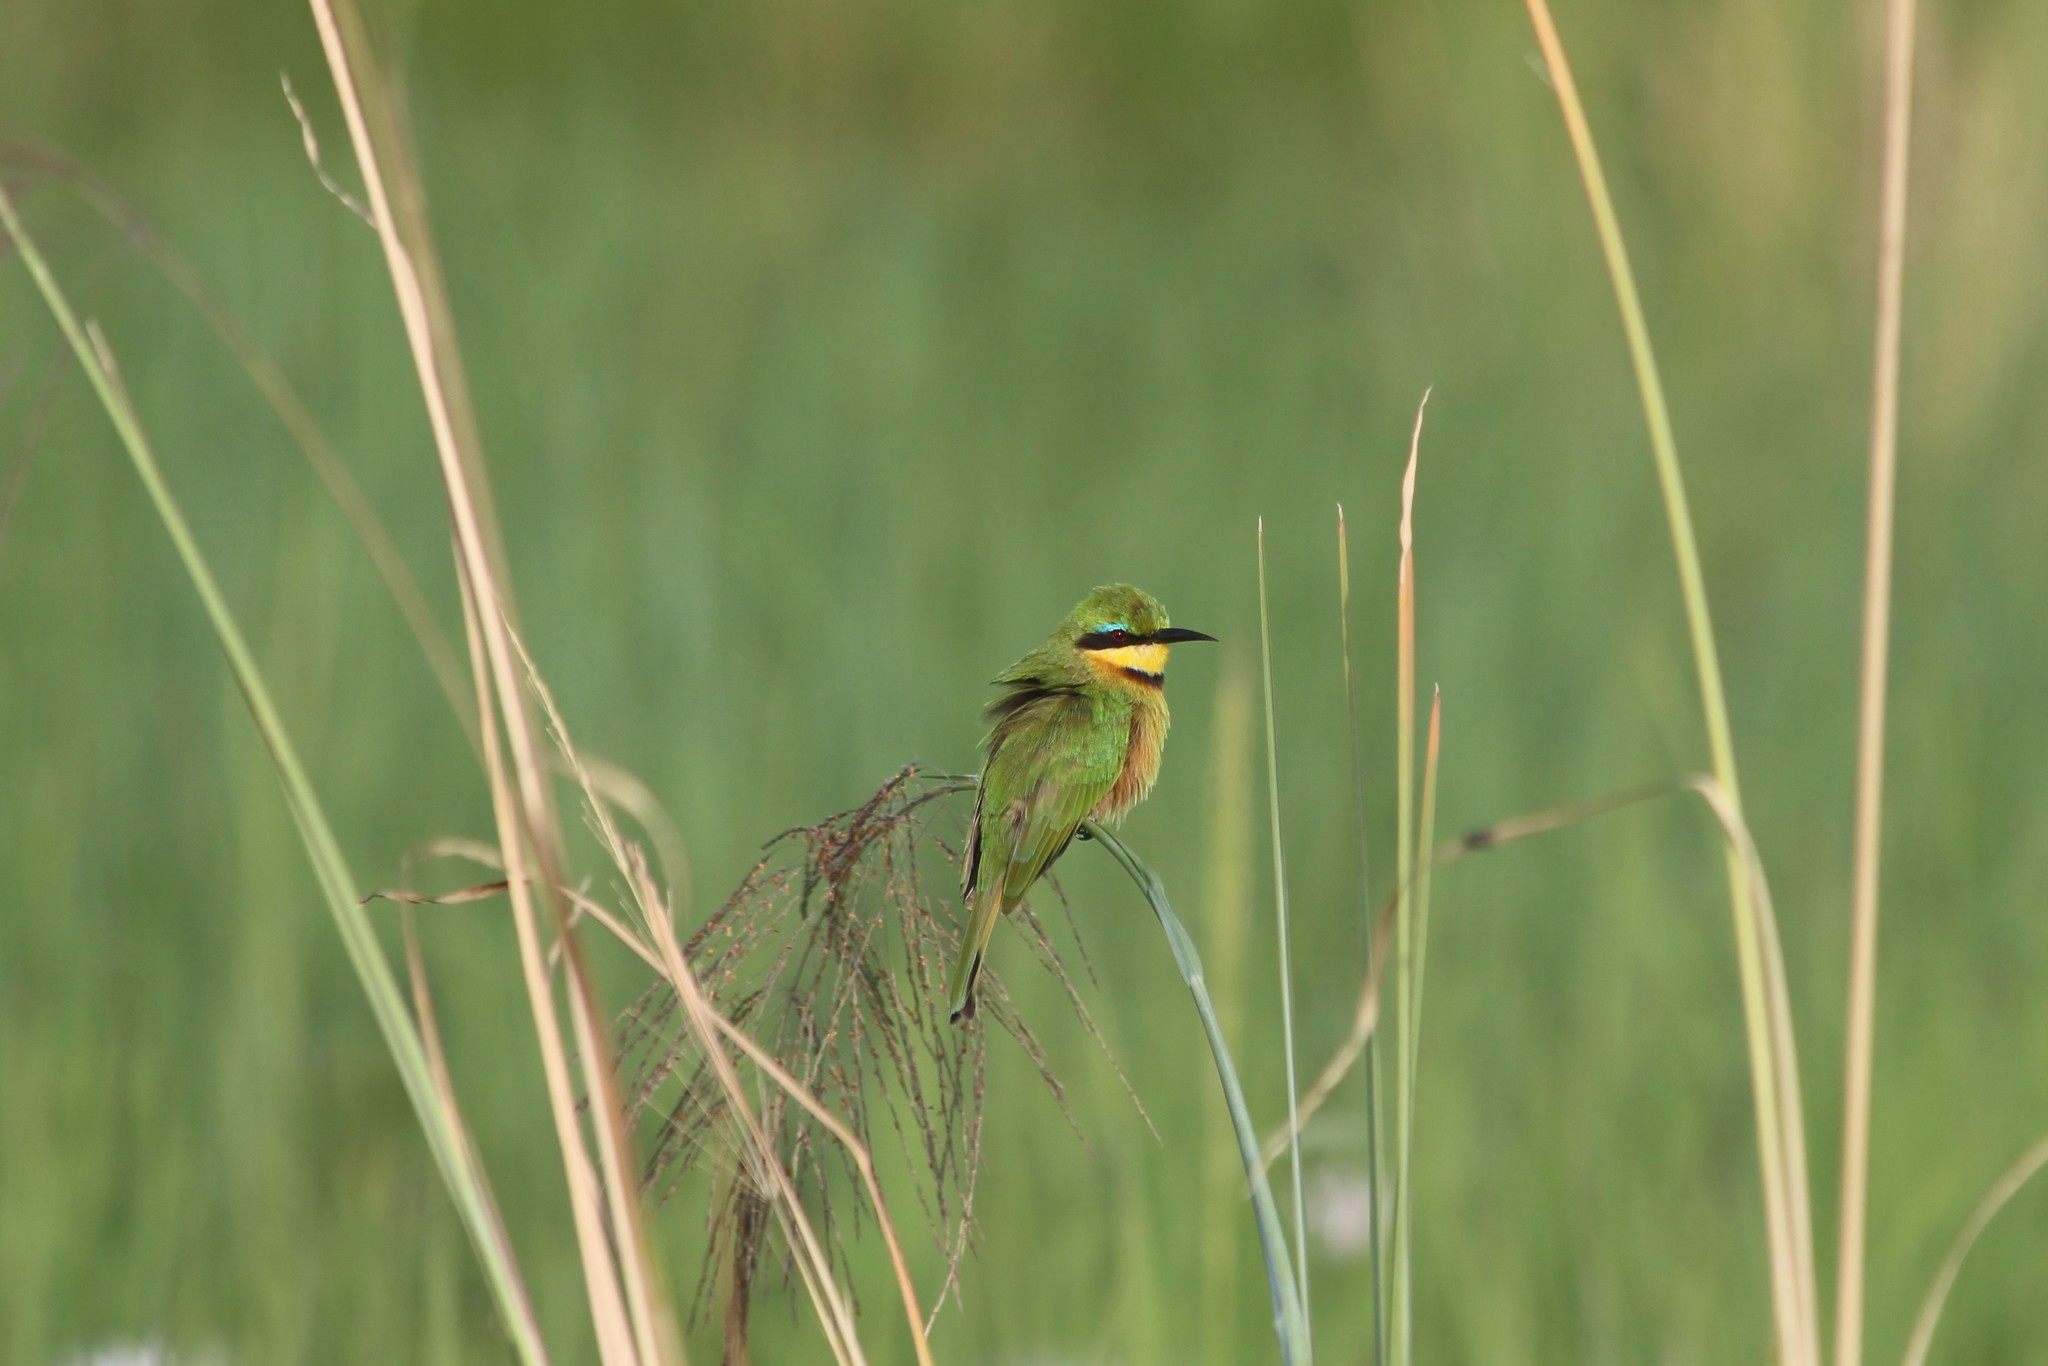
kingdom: Animalia
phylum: Chordata
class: Aves
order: Coraciiformes
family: Meropidae
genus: Merops
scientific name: Merops pusillus
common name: Little bee-eater
